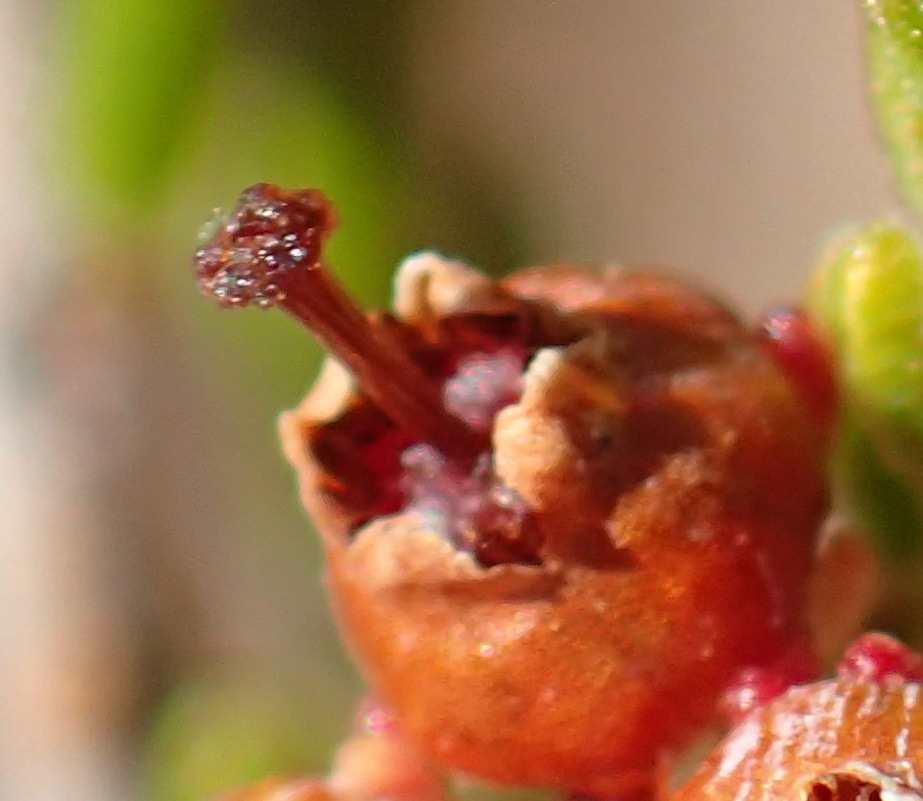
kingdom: Plantae
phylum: Tracheophyta
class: Magnoliopsida
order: Ericales
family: Ericaceae
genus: Erica
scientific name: Erica copiosa
